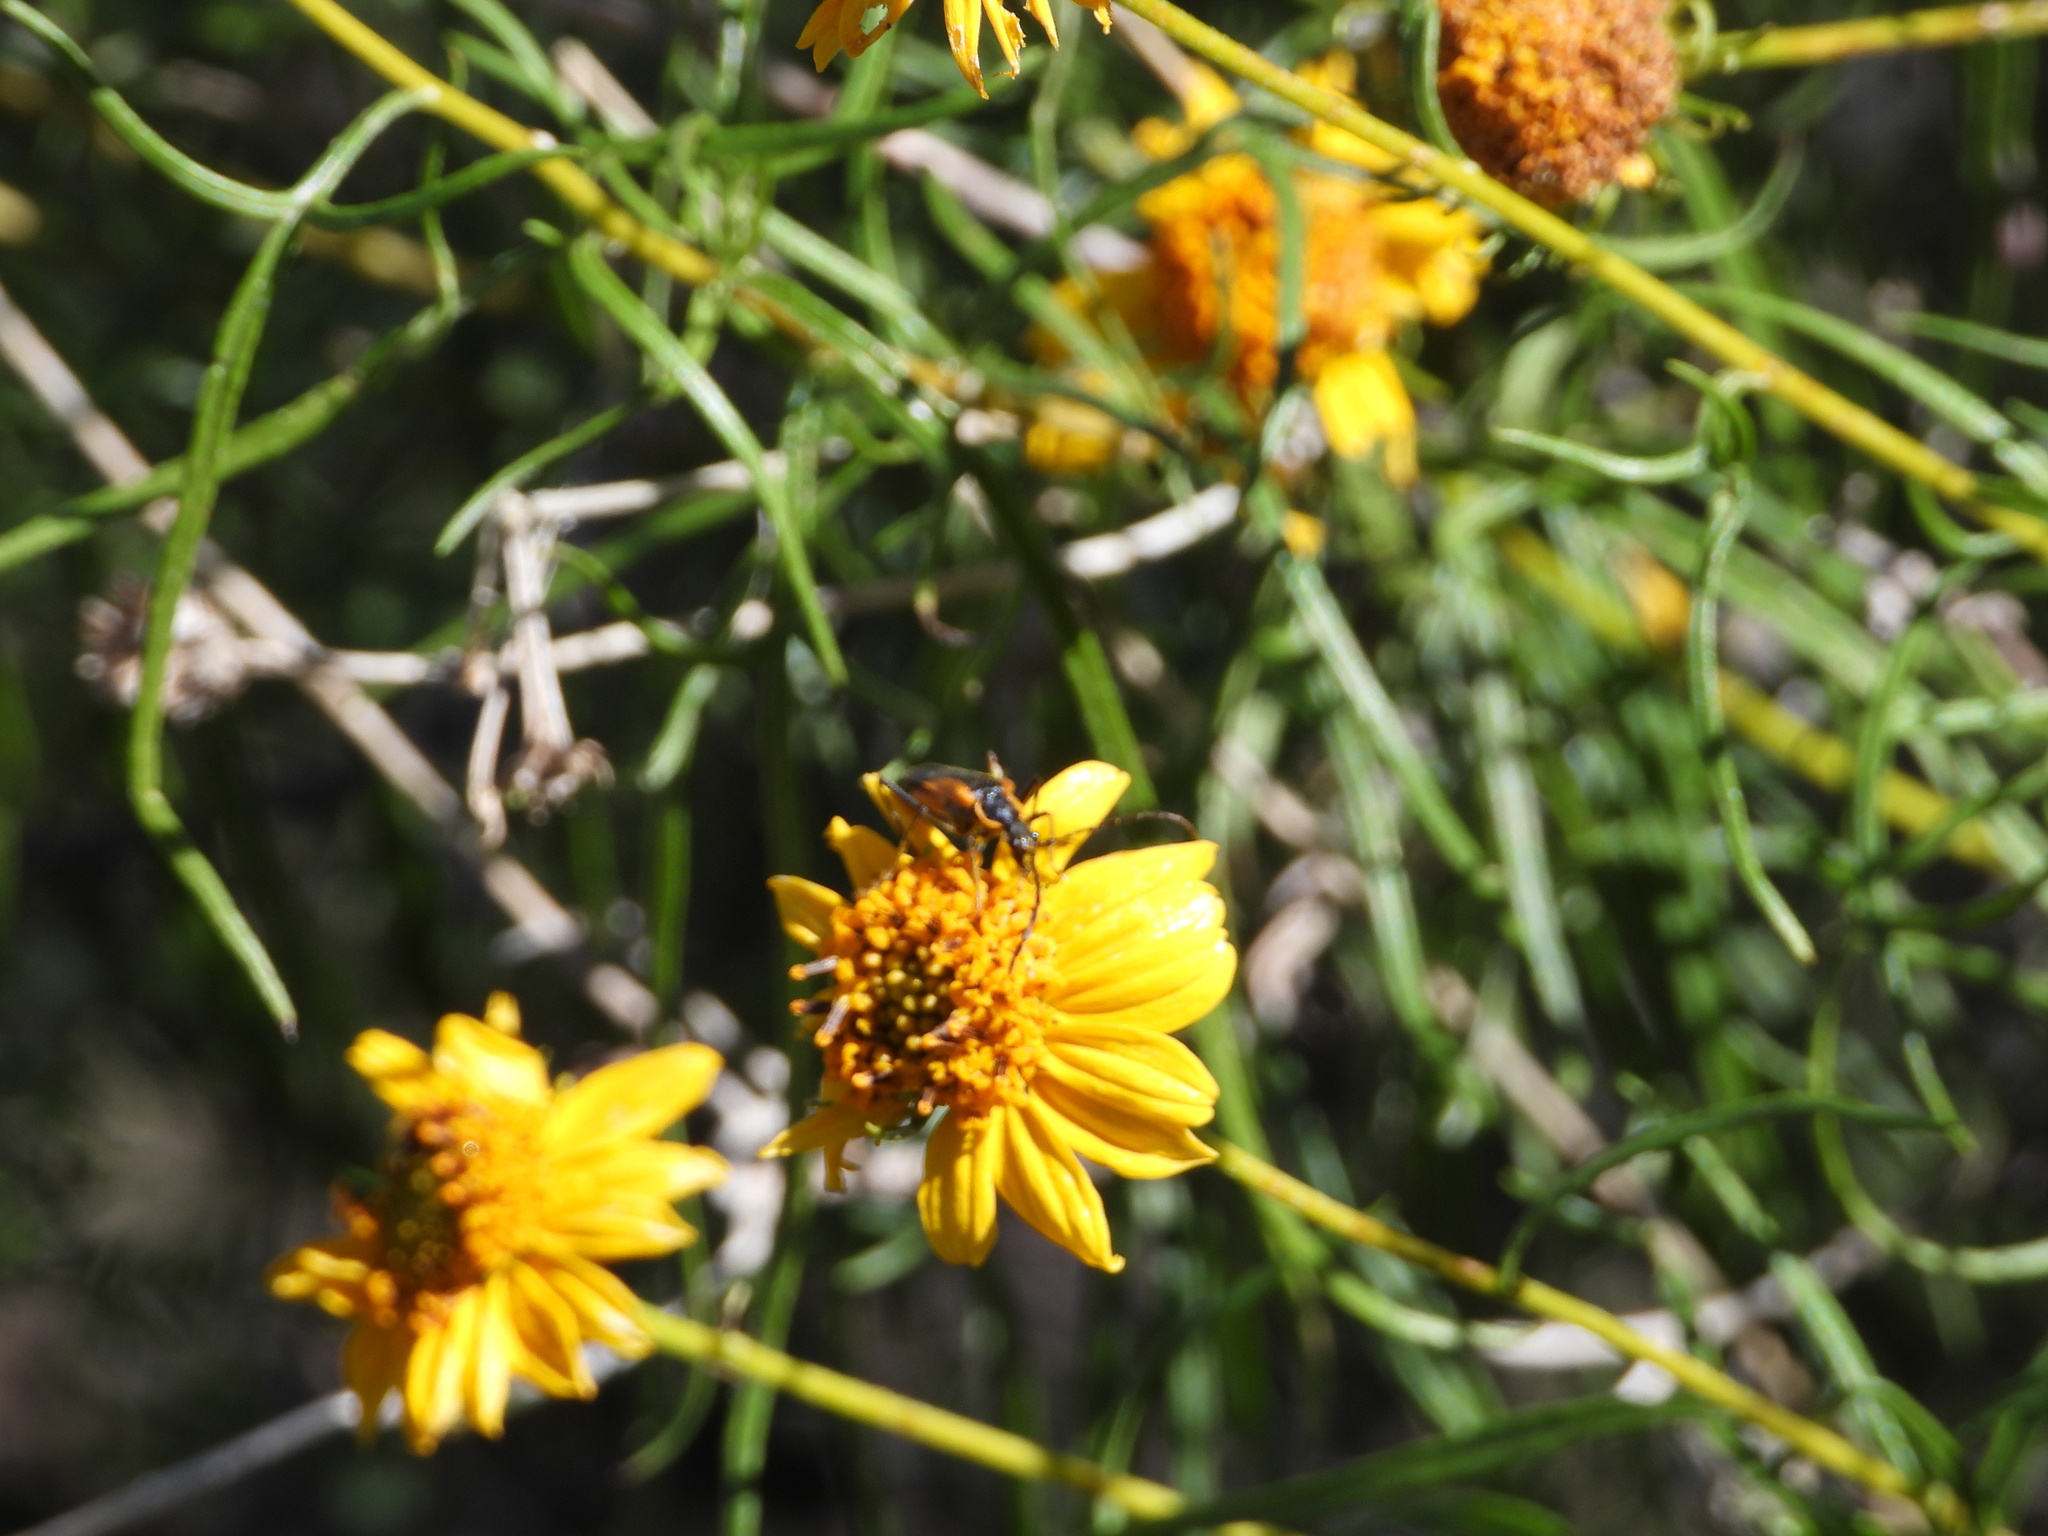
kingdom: Animalia
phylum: Arthropoda
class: Insecta
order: Coleoptera
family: Cantharidae
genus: Chauliognathus
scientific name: Chauliognathus limbicollis
